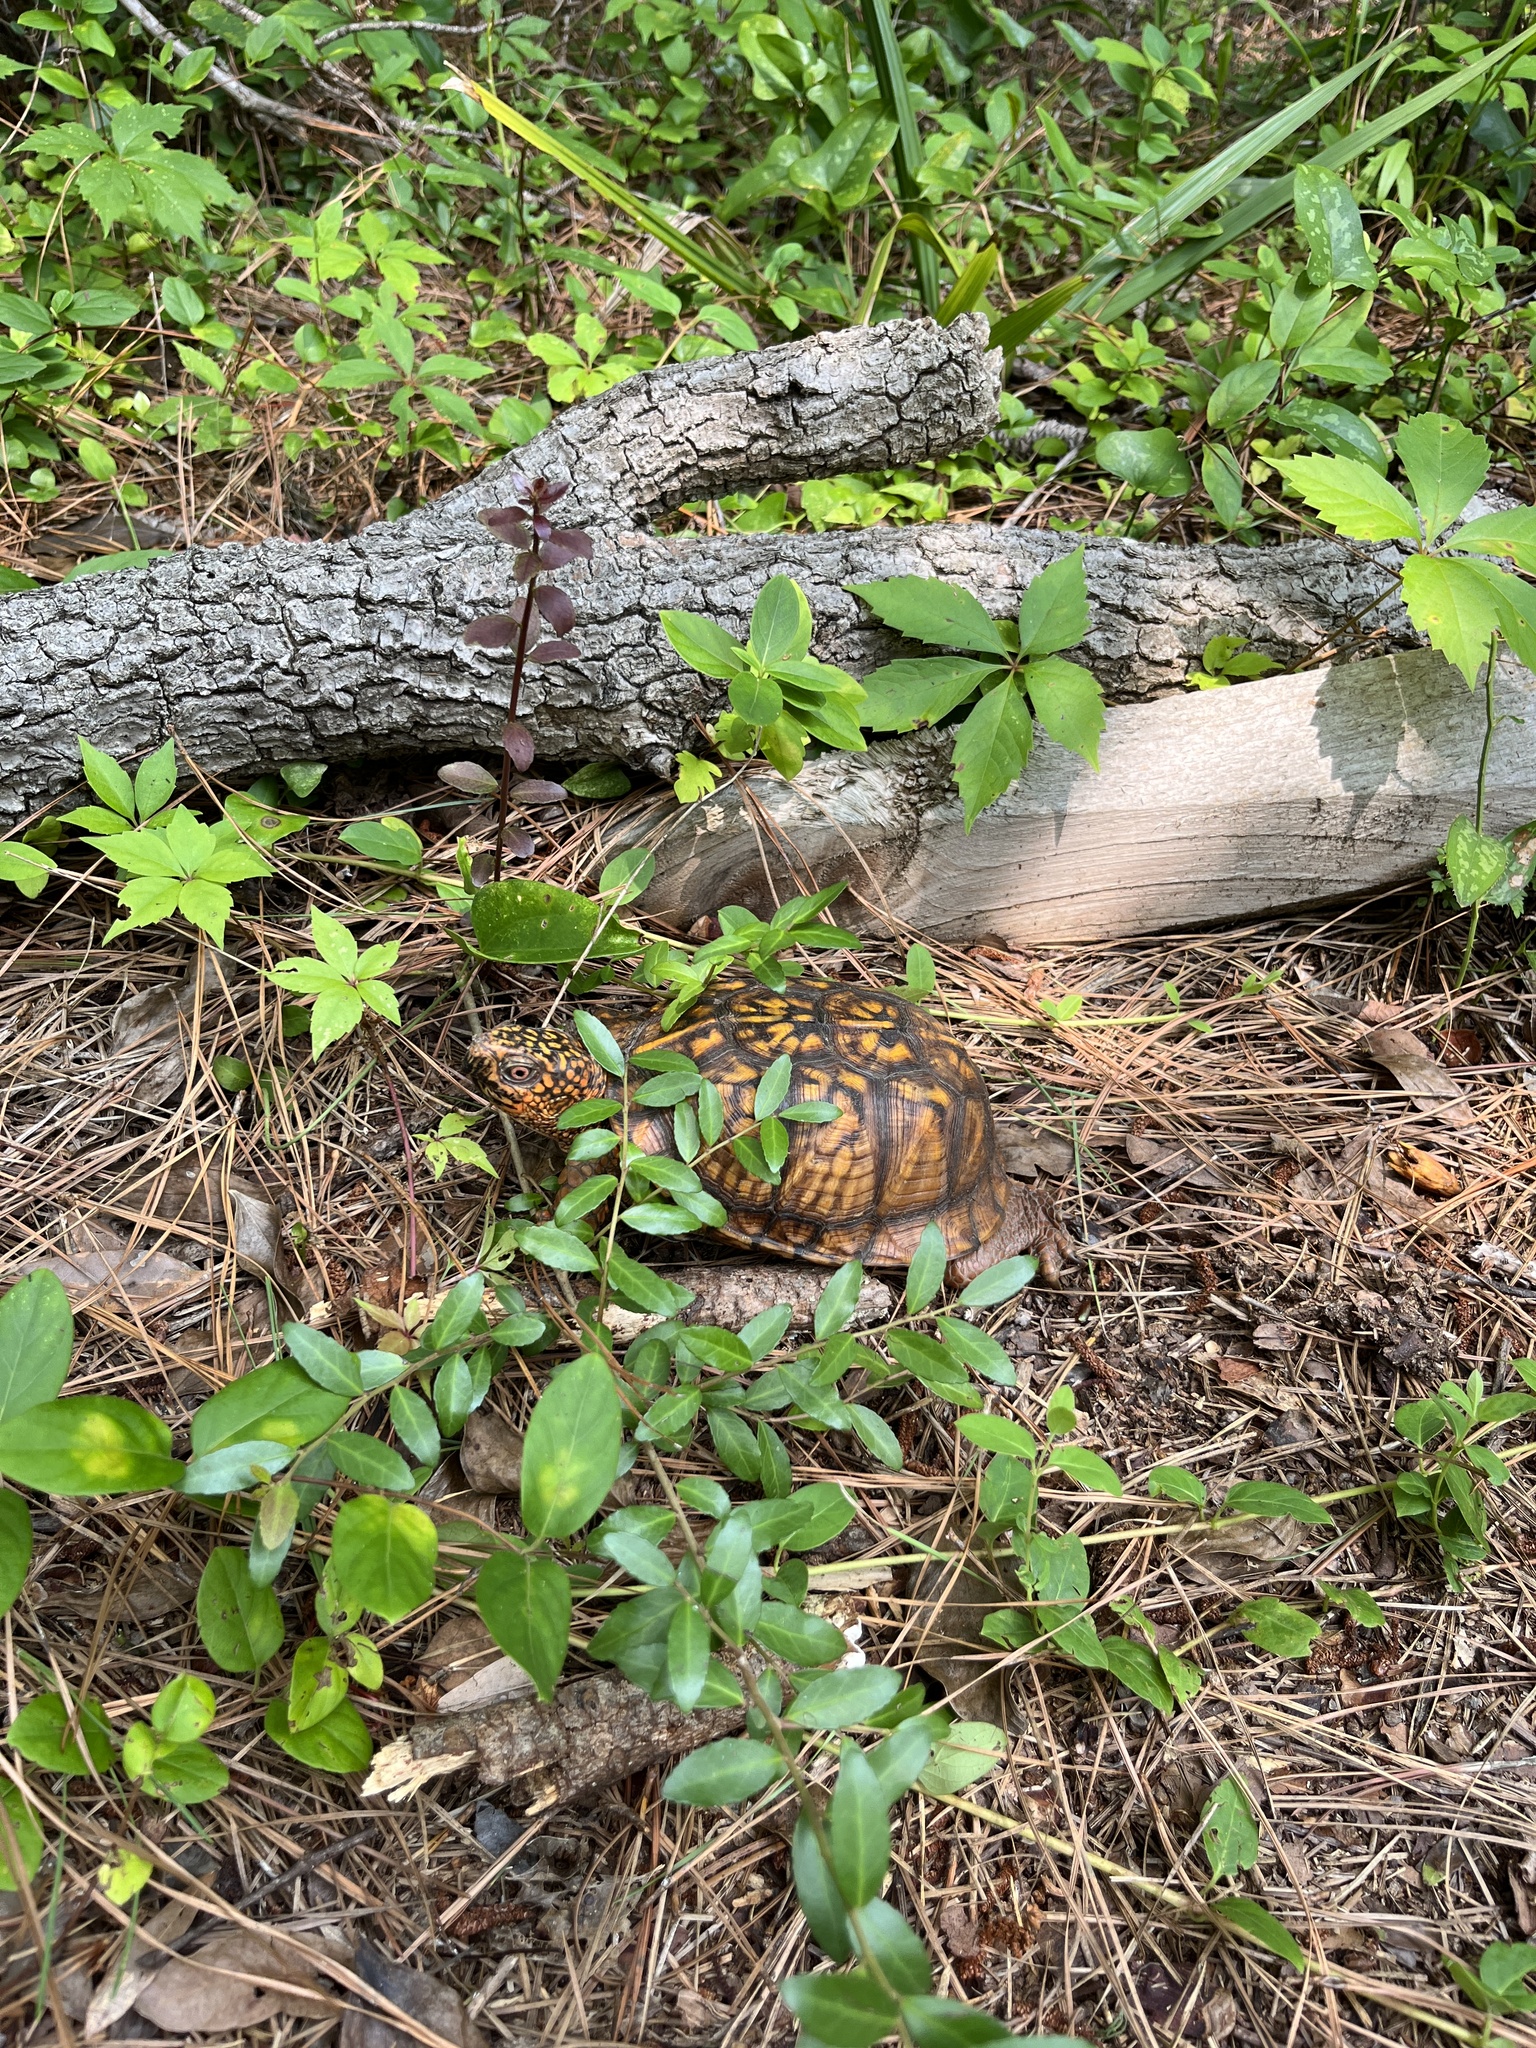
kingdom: Animalia
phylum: Chordata
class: Testudines
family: Emydidae
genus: Terrapene
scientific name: Terrapene carolina
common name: Common box turtle
